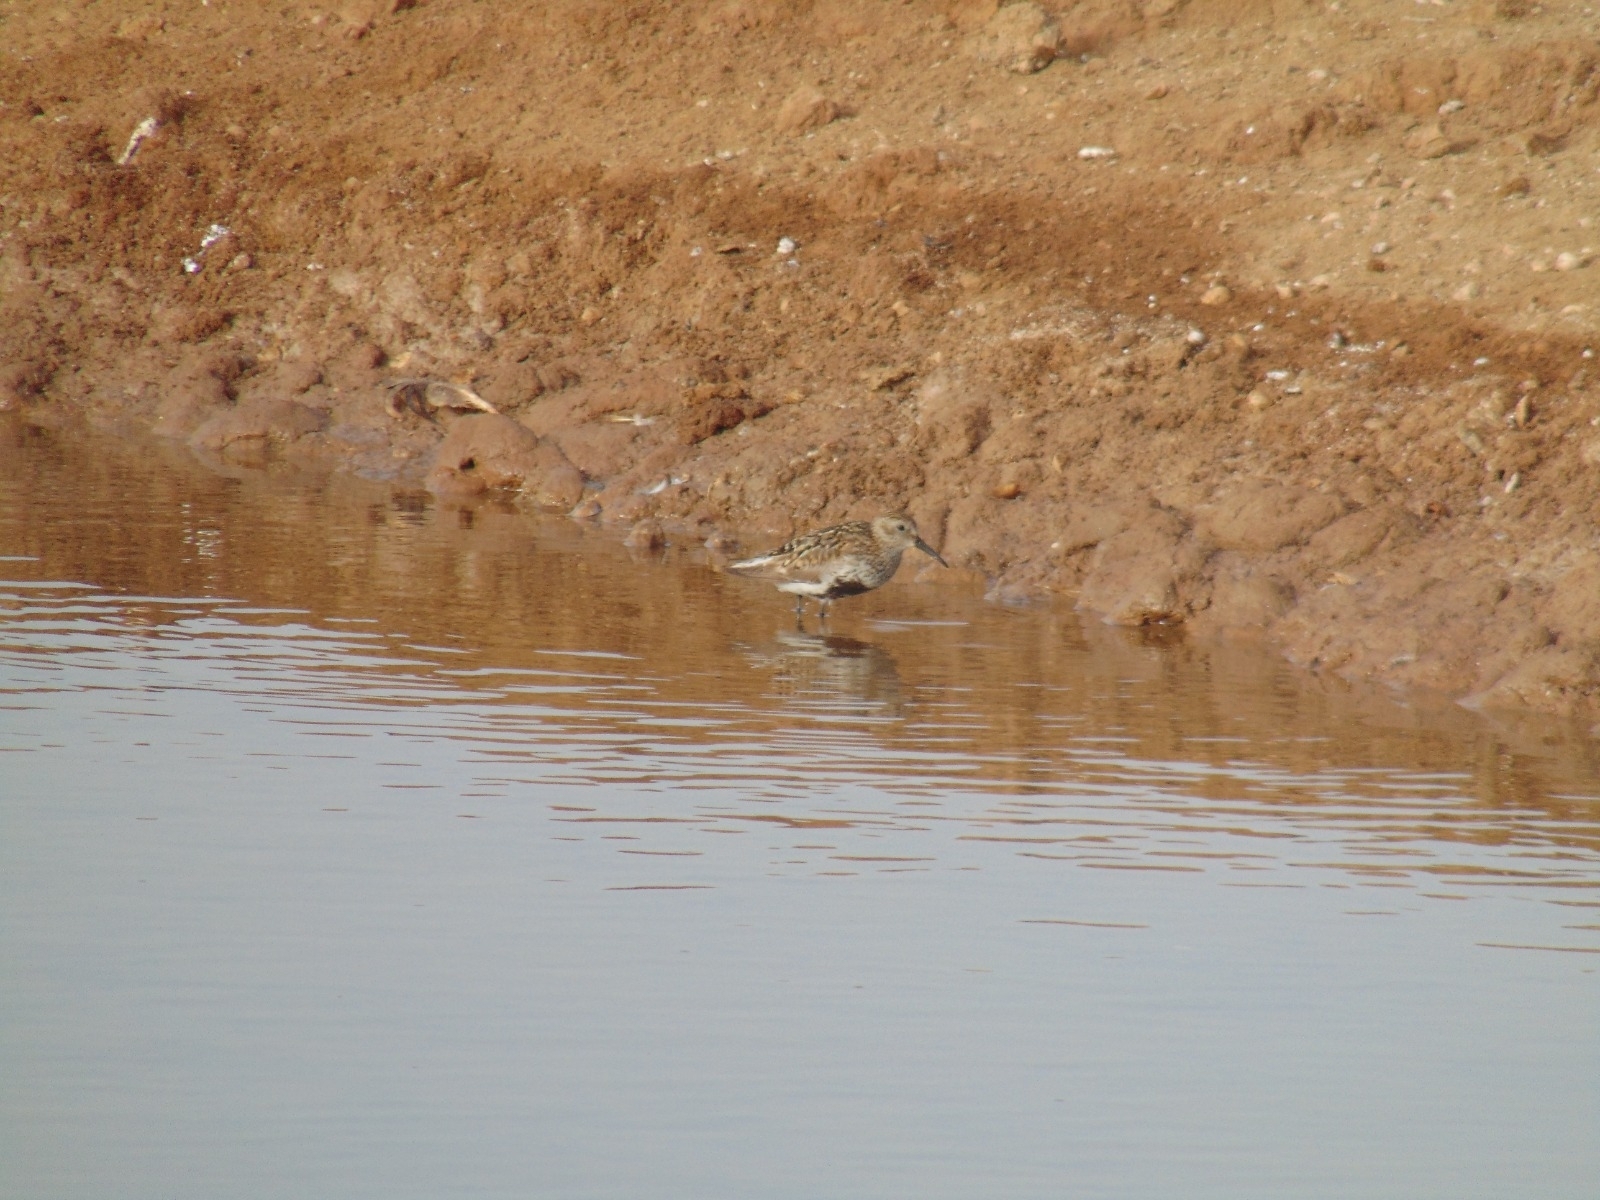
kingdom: Animalia
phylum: Chordata
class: Aves
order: Charadriiformes
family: Scolopacidae
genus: Calidris
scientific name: Calidris alpina
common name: Dunlin
